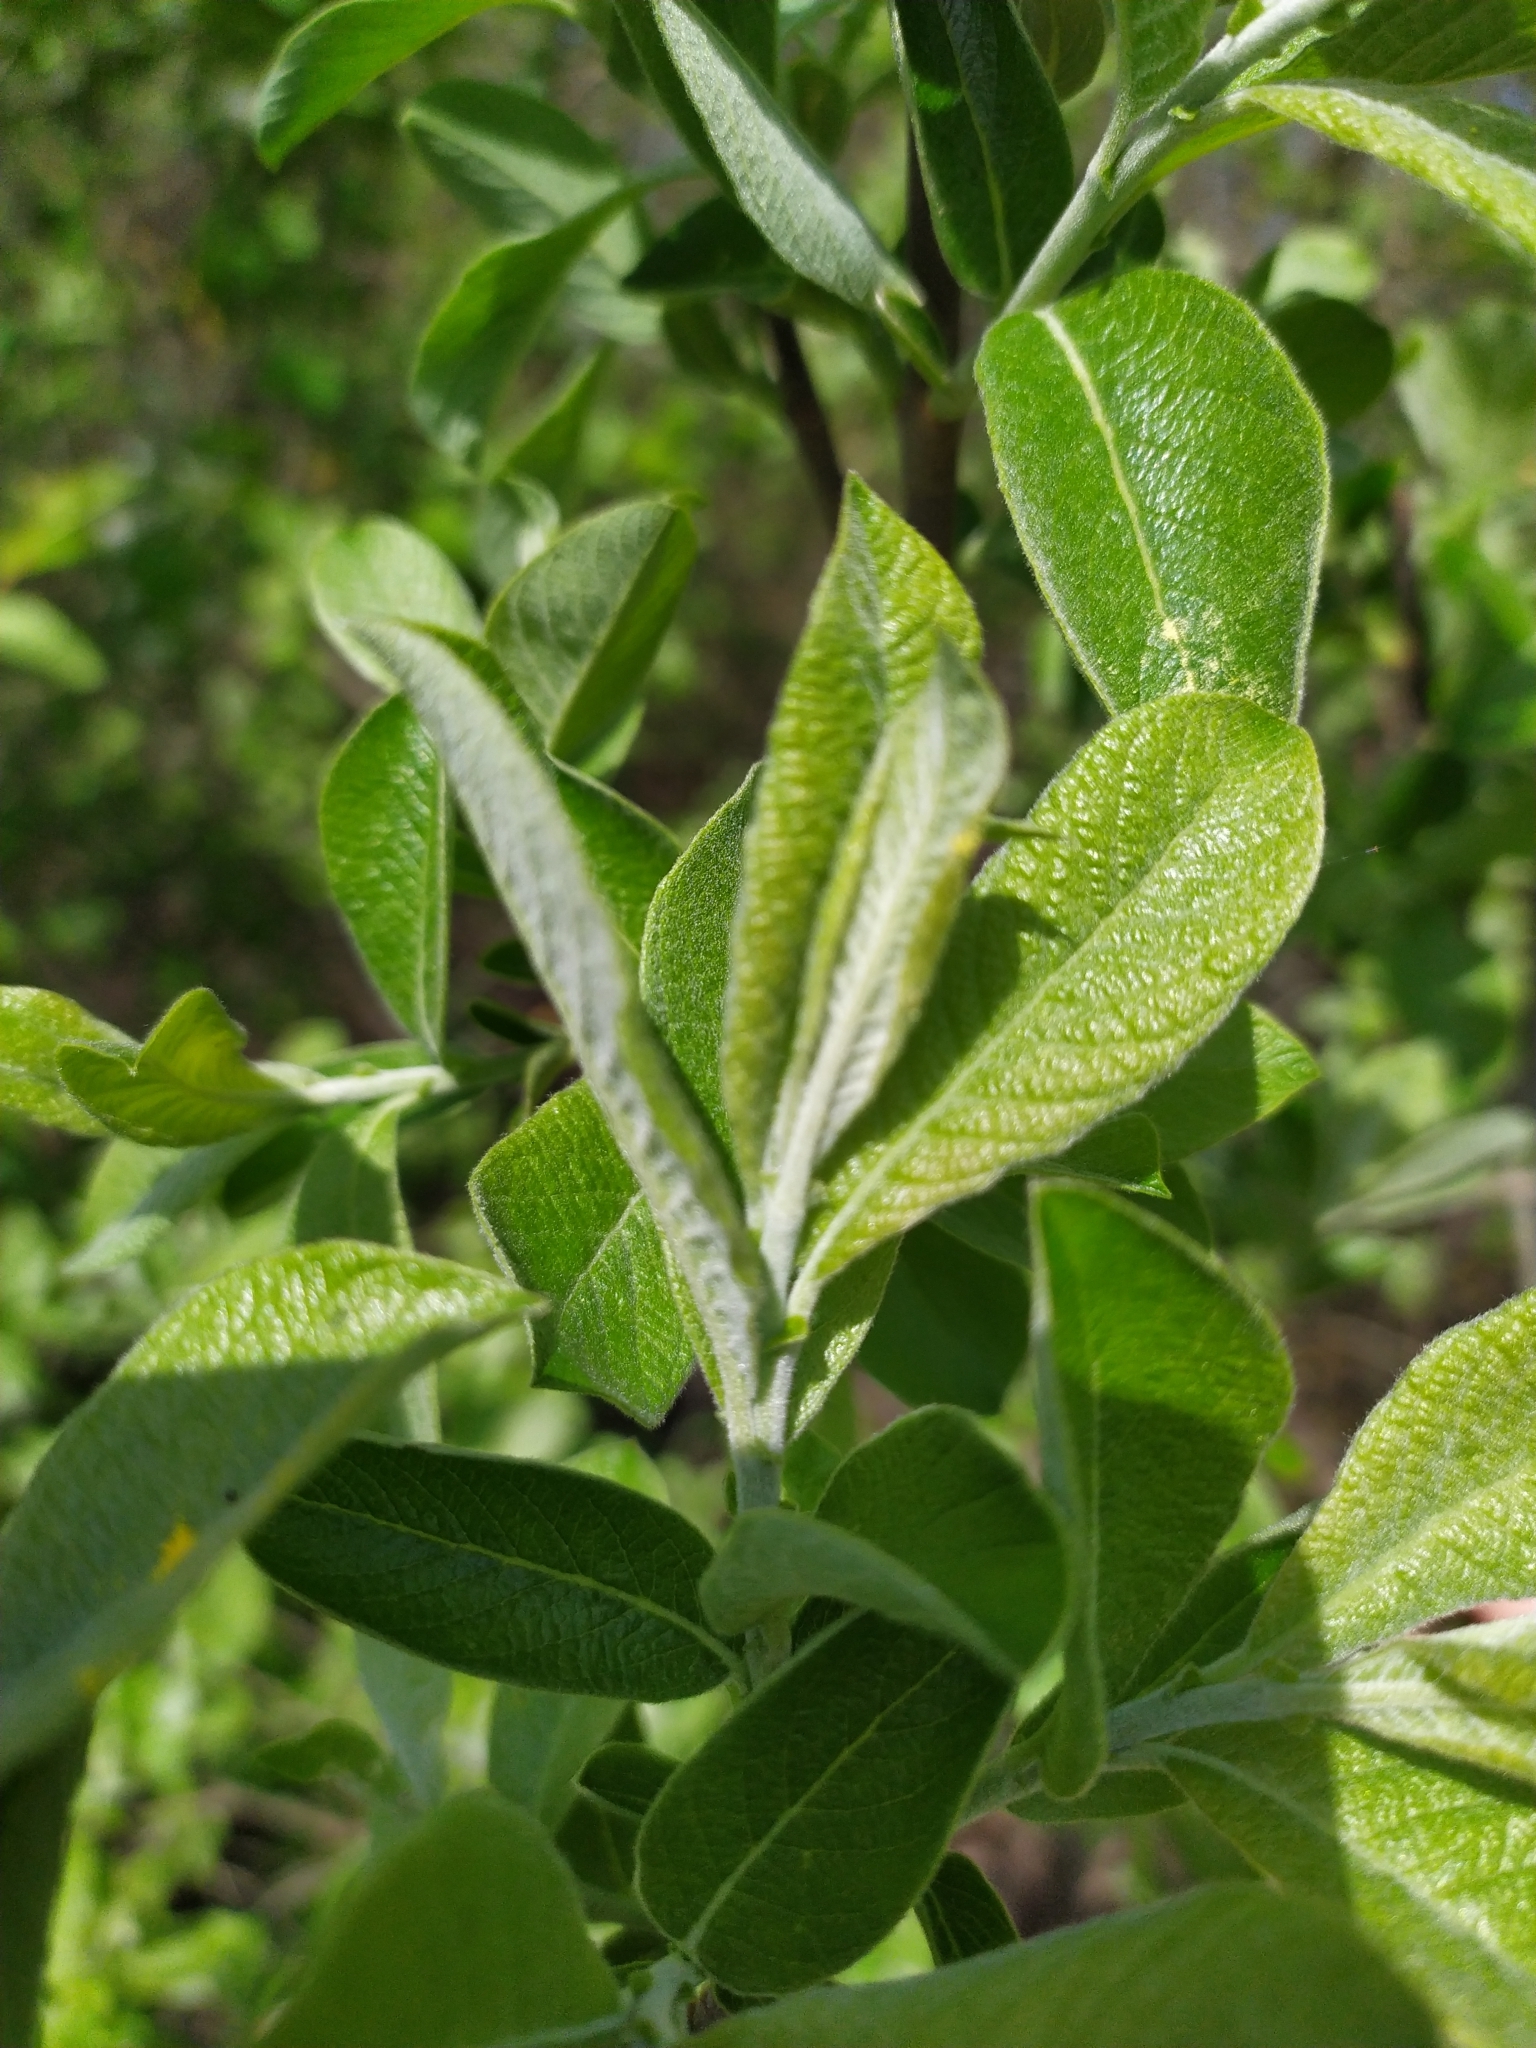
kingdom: Plantae
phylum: Tracheophyta
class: Magnoliopsida
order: Malpighiales
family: Salicaceae
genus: Salix
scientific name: Salix cinerea
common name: Common sallow
